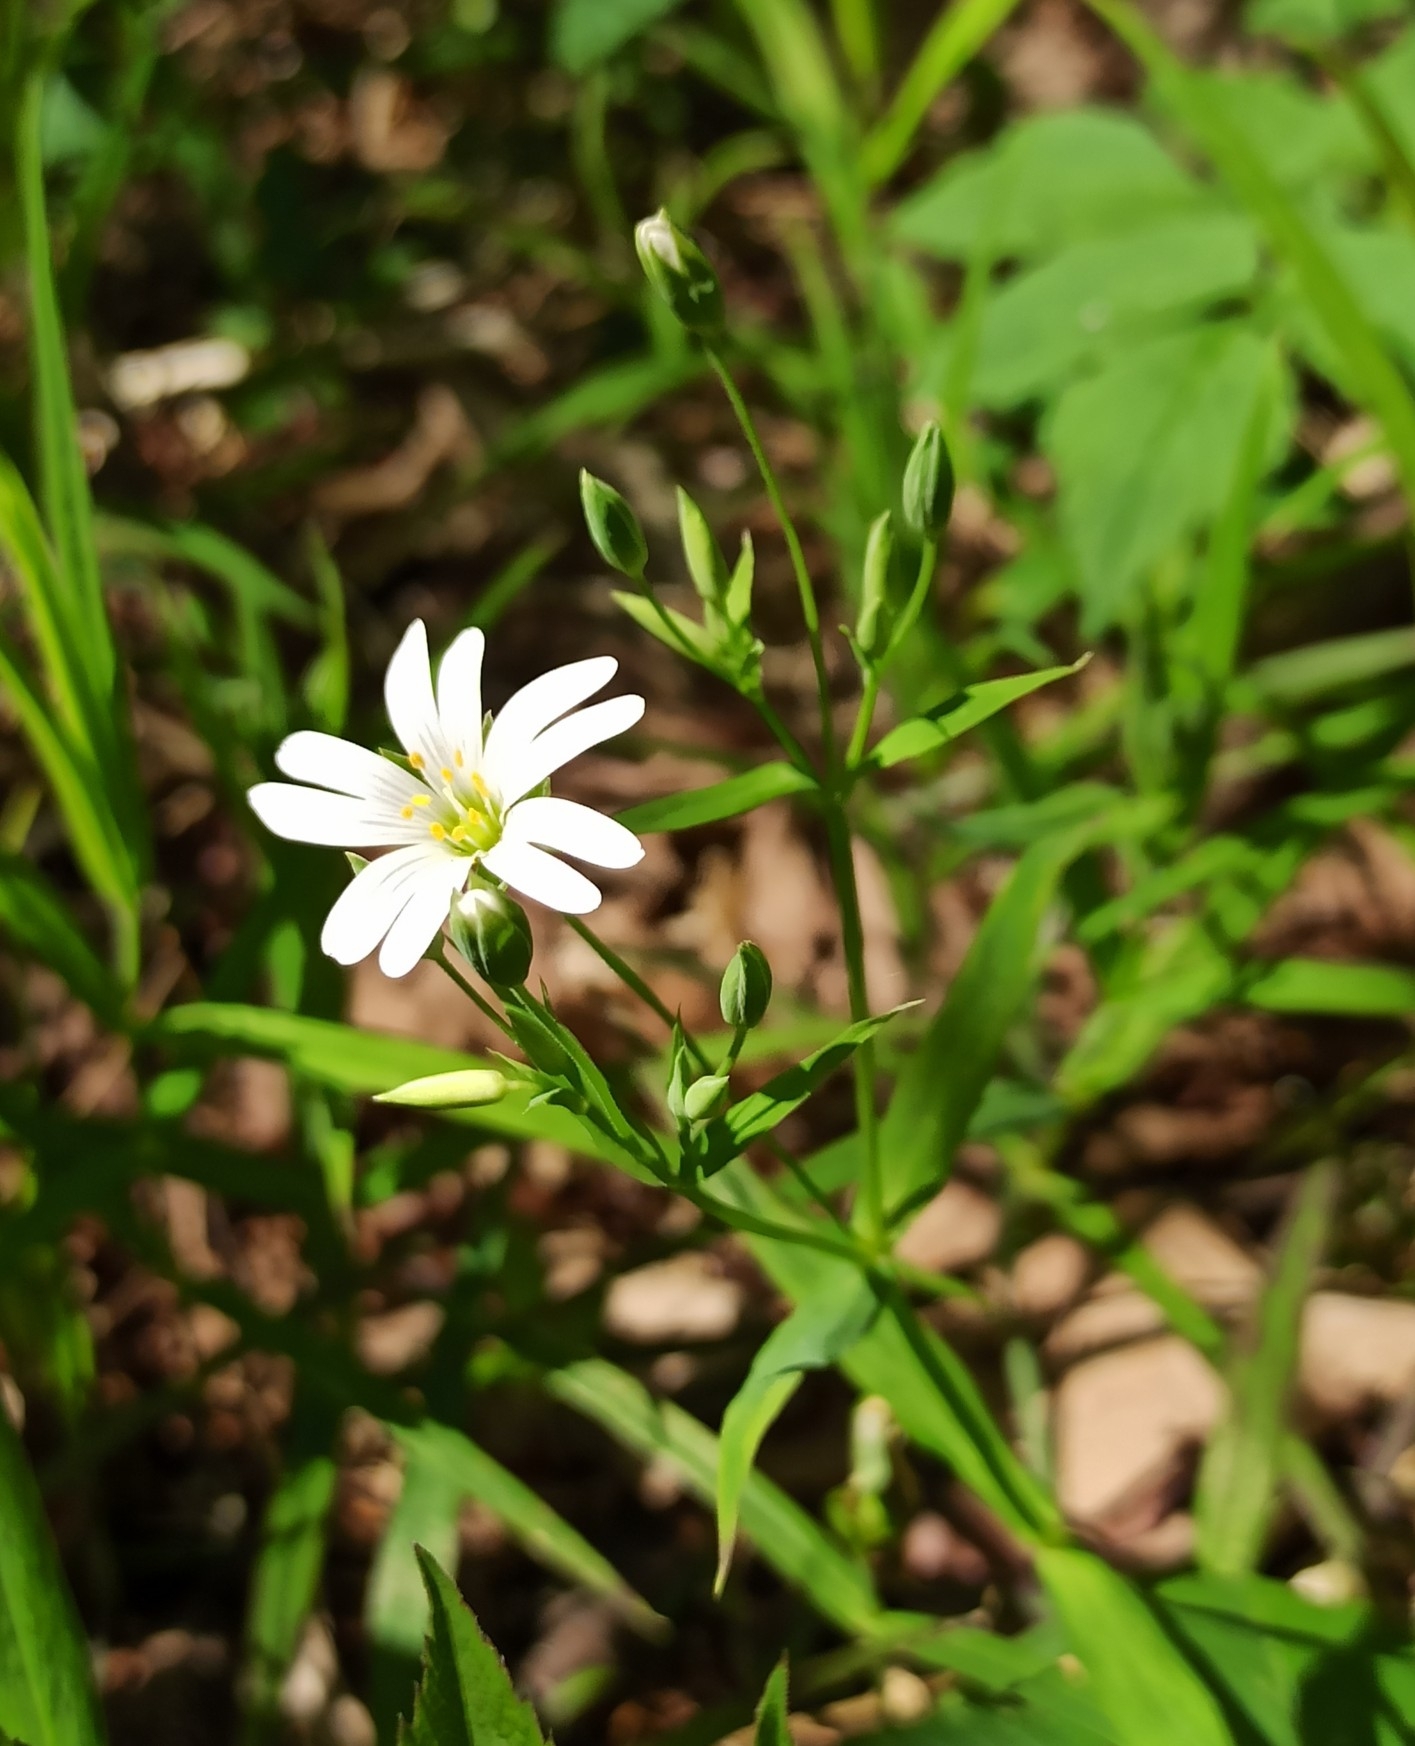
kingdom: Plantae
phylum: Tracheophyta
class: Magnoliopsida
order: Caryophyllales
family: Caryophyllaceae
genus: Rabelera
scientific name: Rabelera holostea
